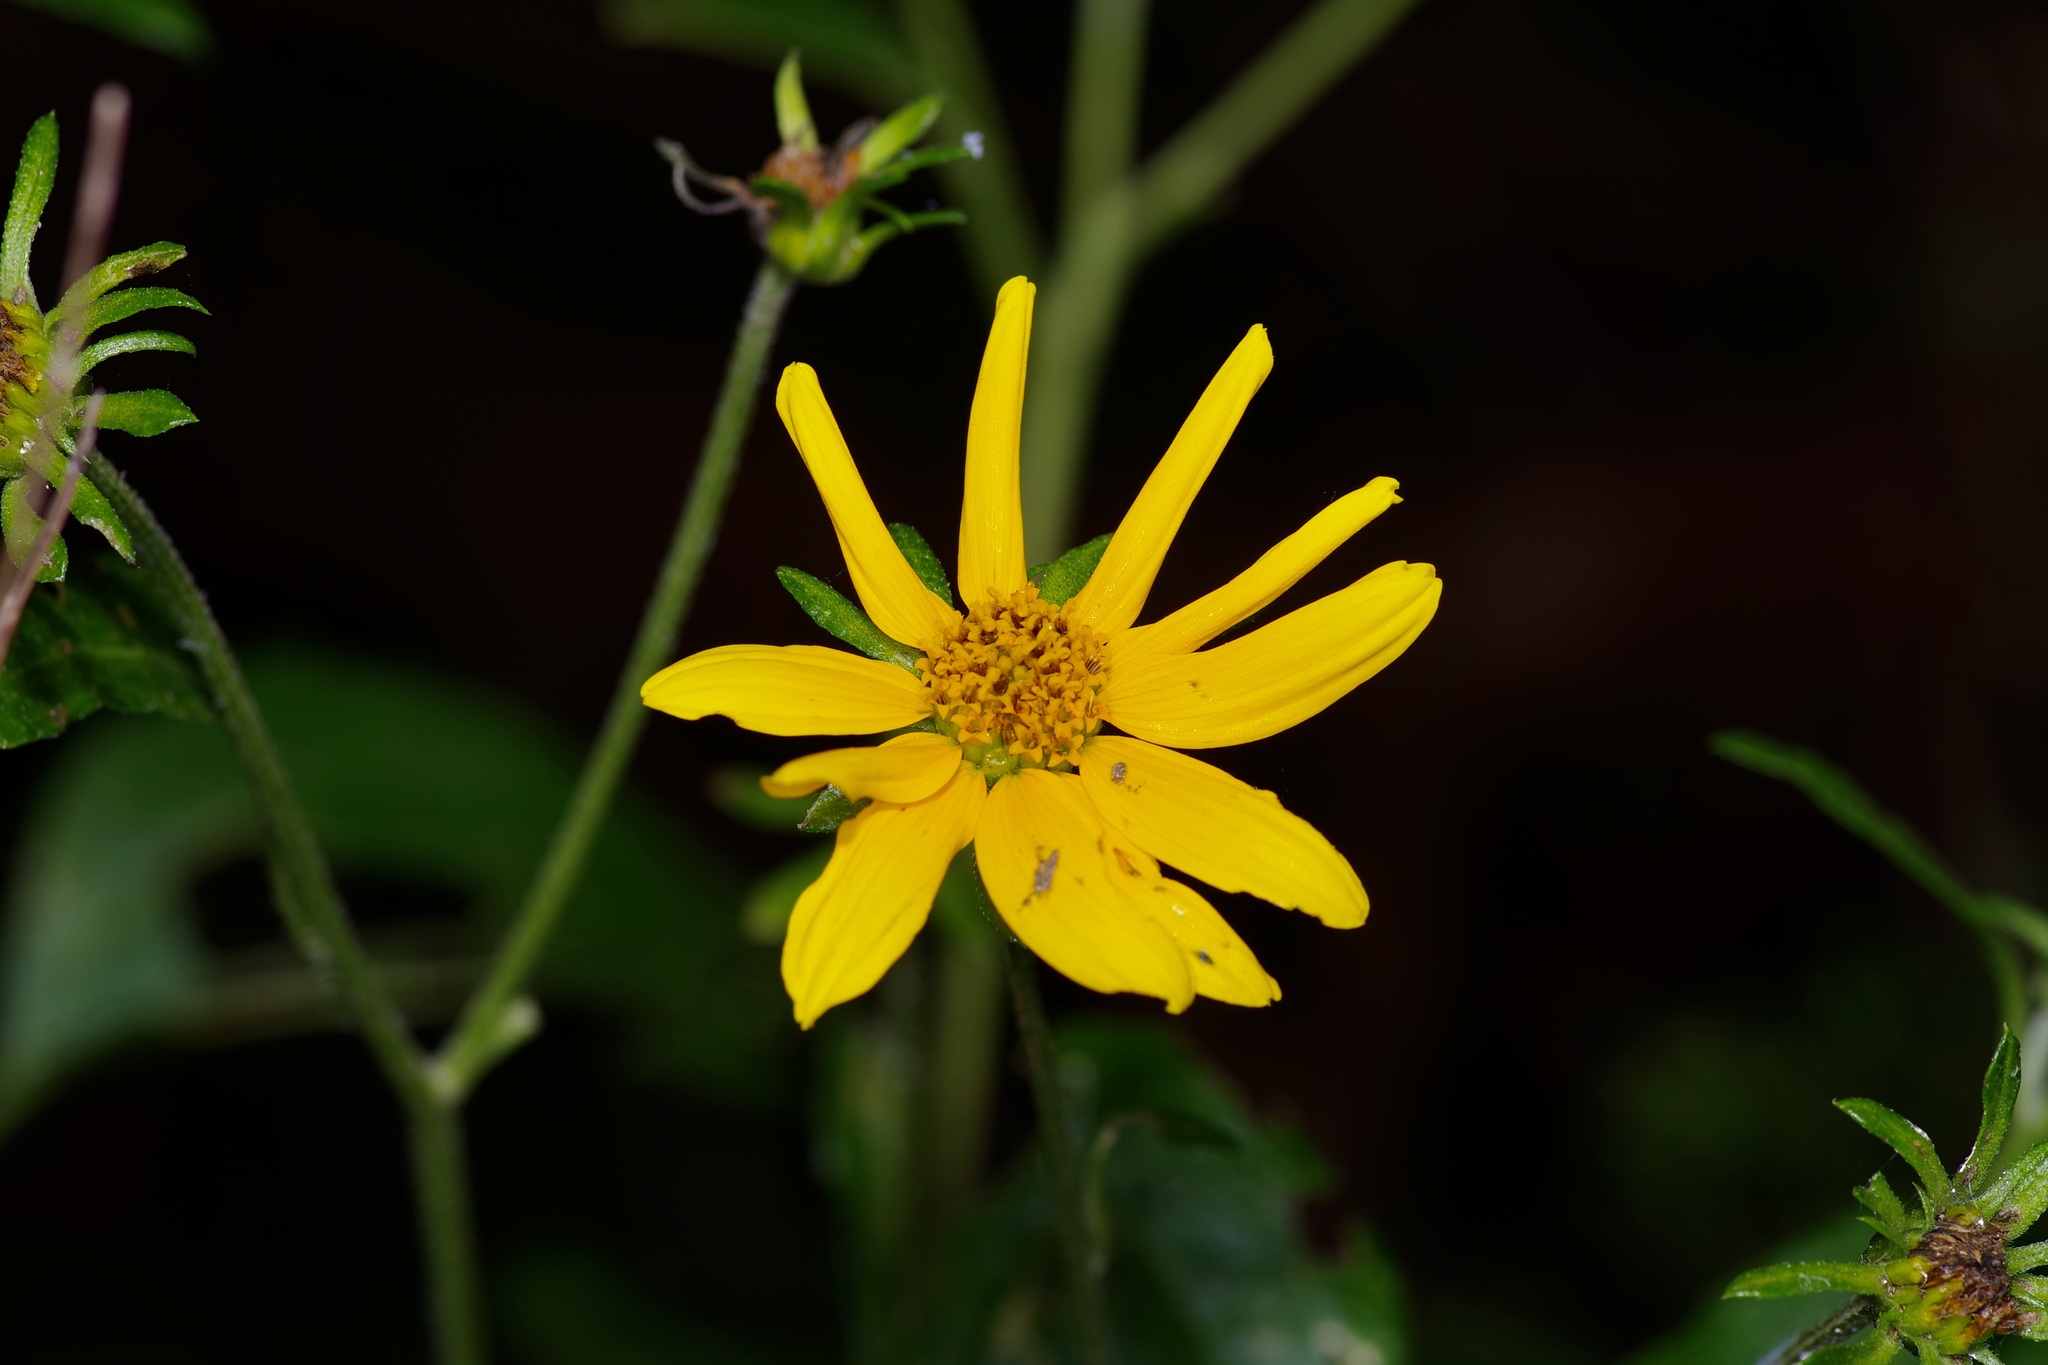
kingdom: Plantae
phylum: Tracheophyta
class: Magnoliopsida
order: Asterales
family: Asteraceae
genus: Viguiera
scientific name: Viguiera dentata
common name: Toothleaf
